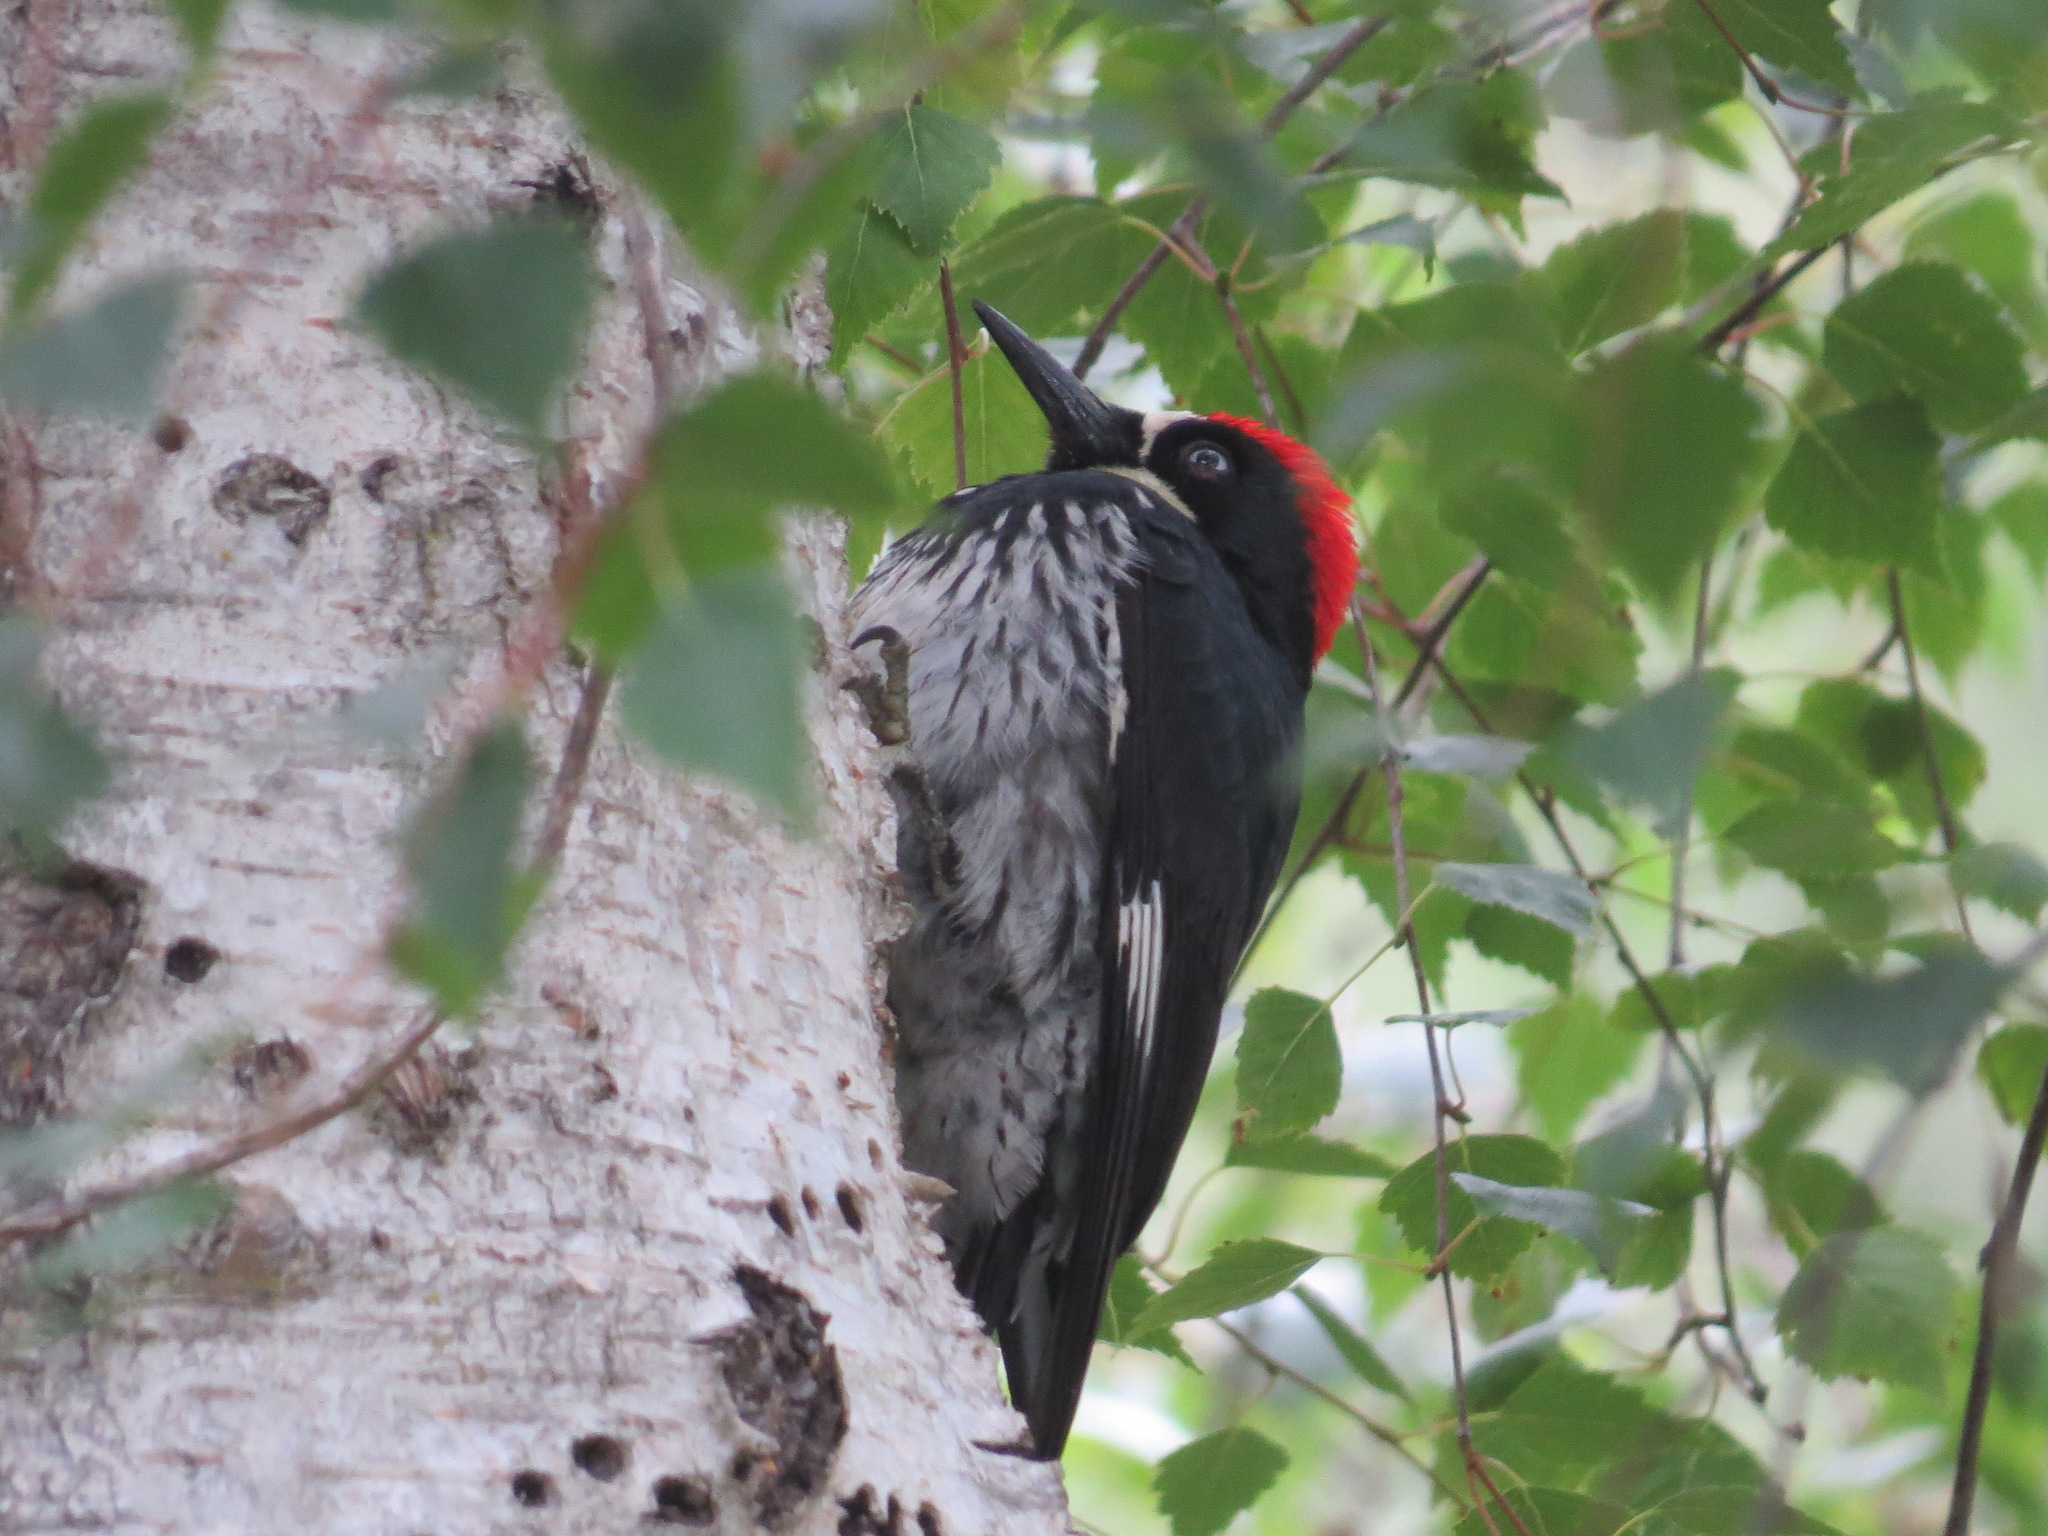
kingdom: Animalia
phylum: Chordata
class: Aves
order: Piciformes
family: Picidae
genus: Melanerpes
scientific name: Melanerpes formicivorus
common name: Acorn woodpecker
